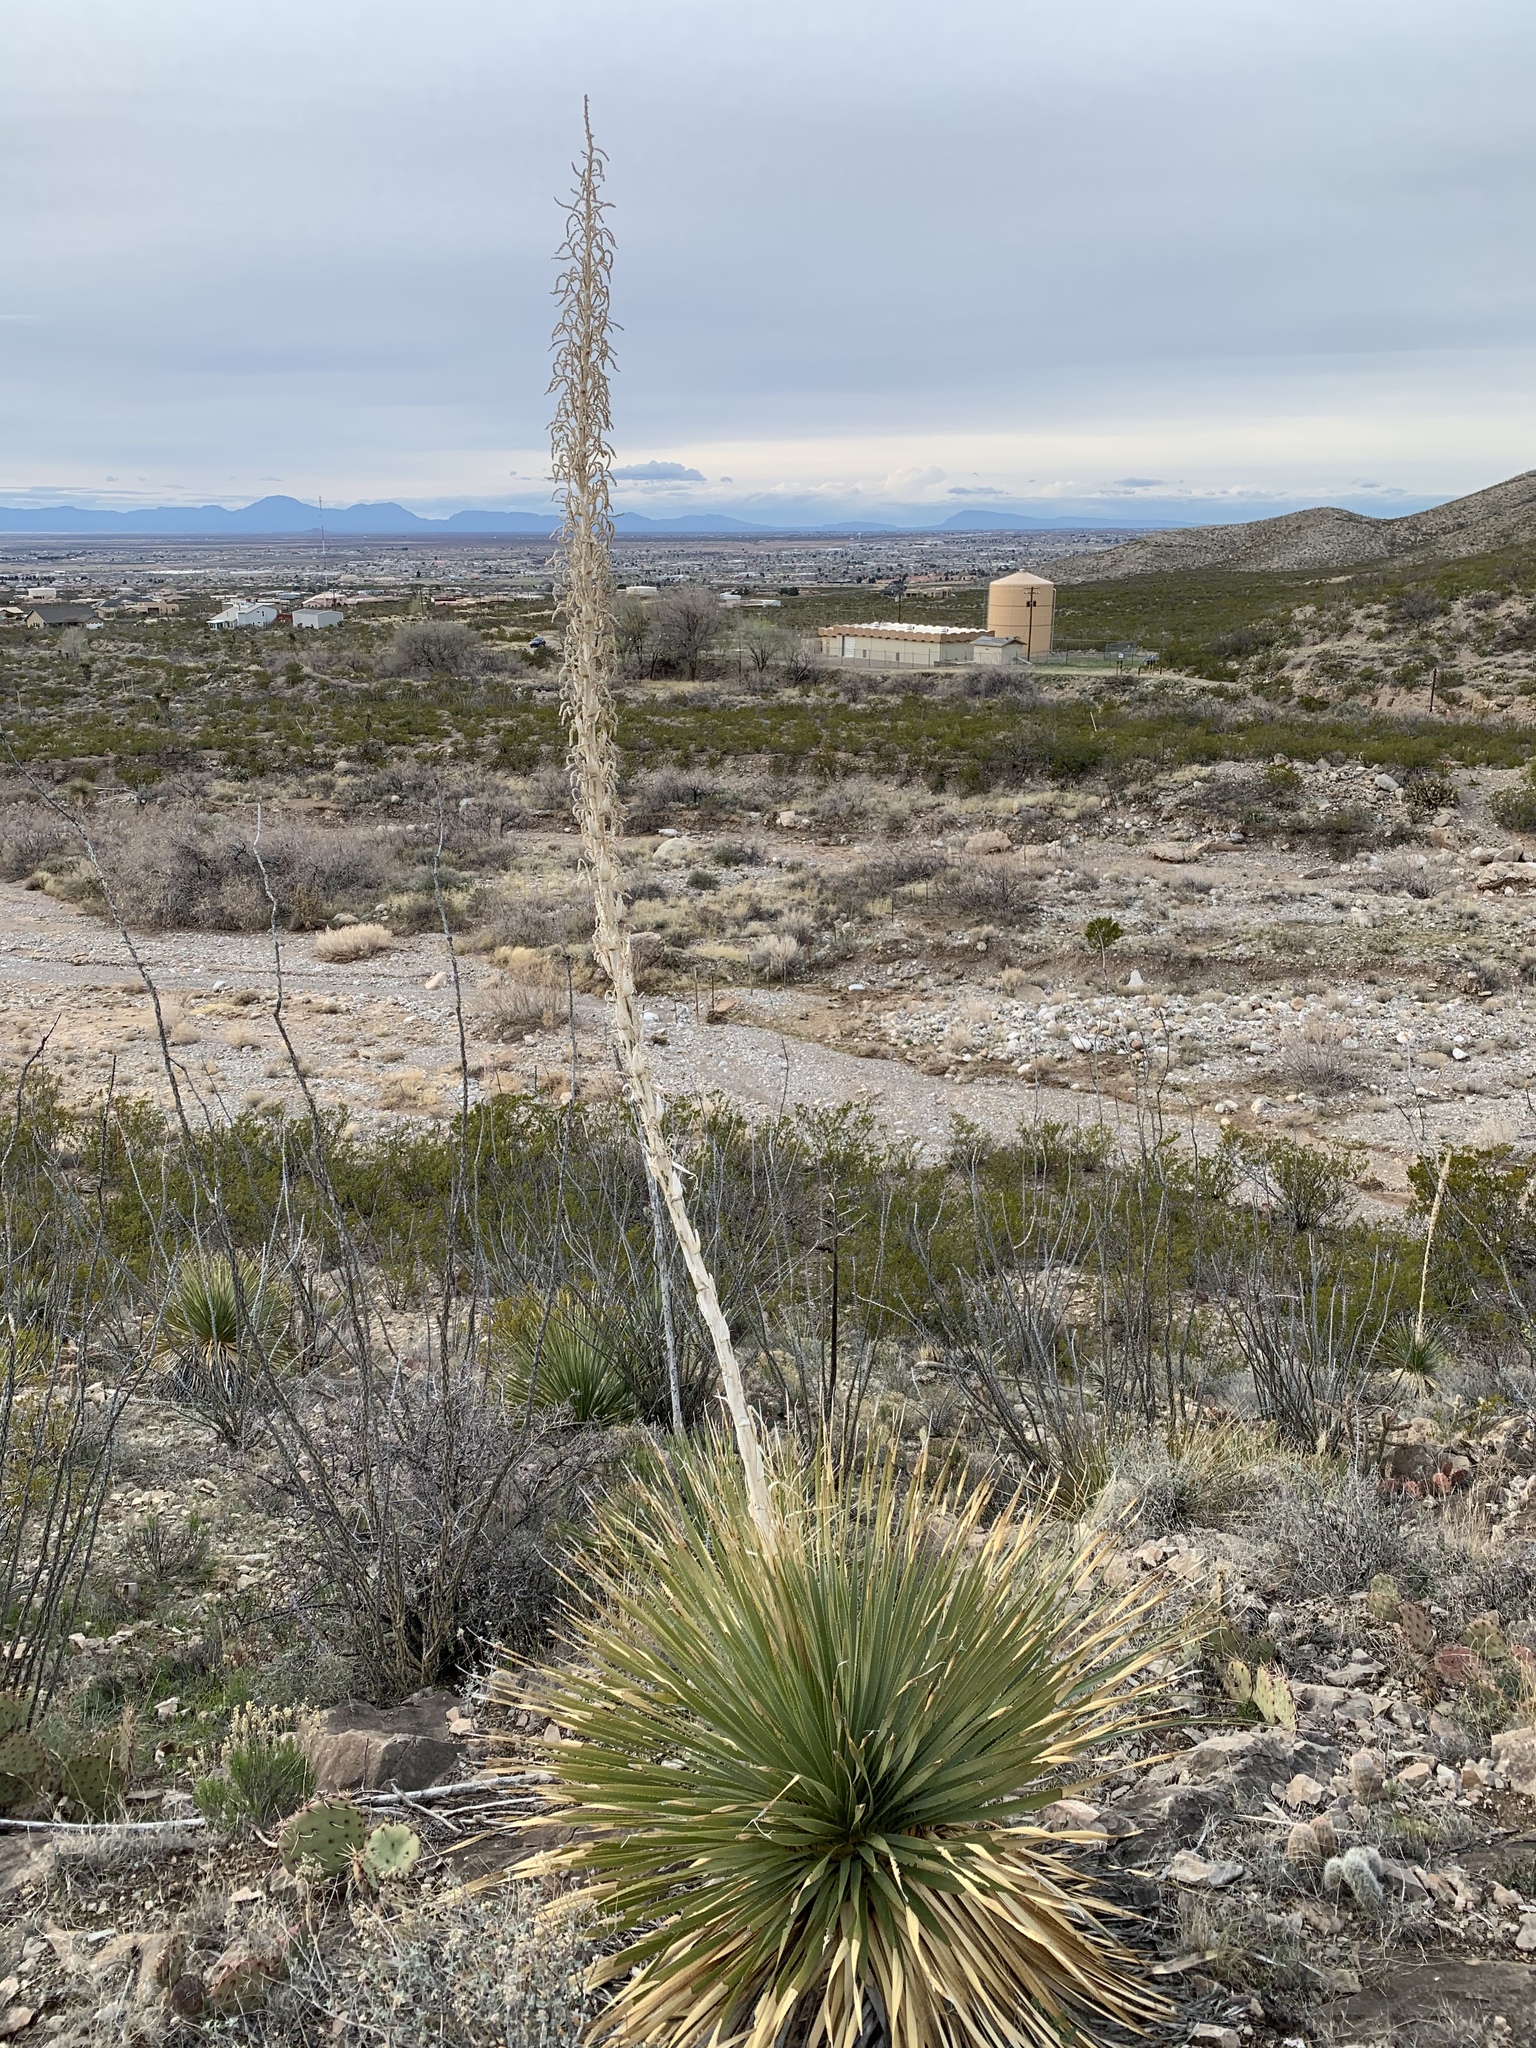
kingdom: Plantae
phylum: Tracheophyta
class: Liliopsida
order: Asparagales
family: Asparagaceae
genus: Dasylirion
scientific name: Dasylirion wheeleri
